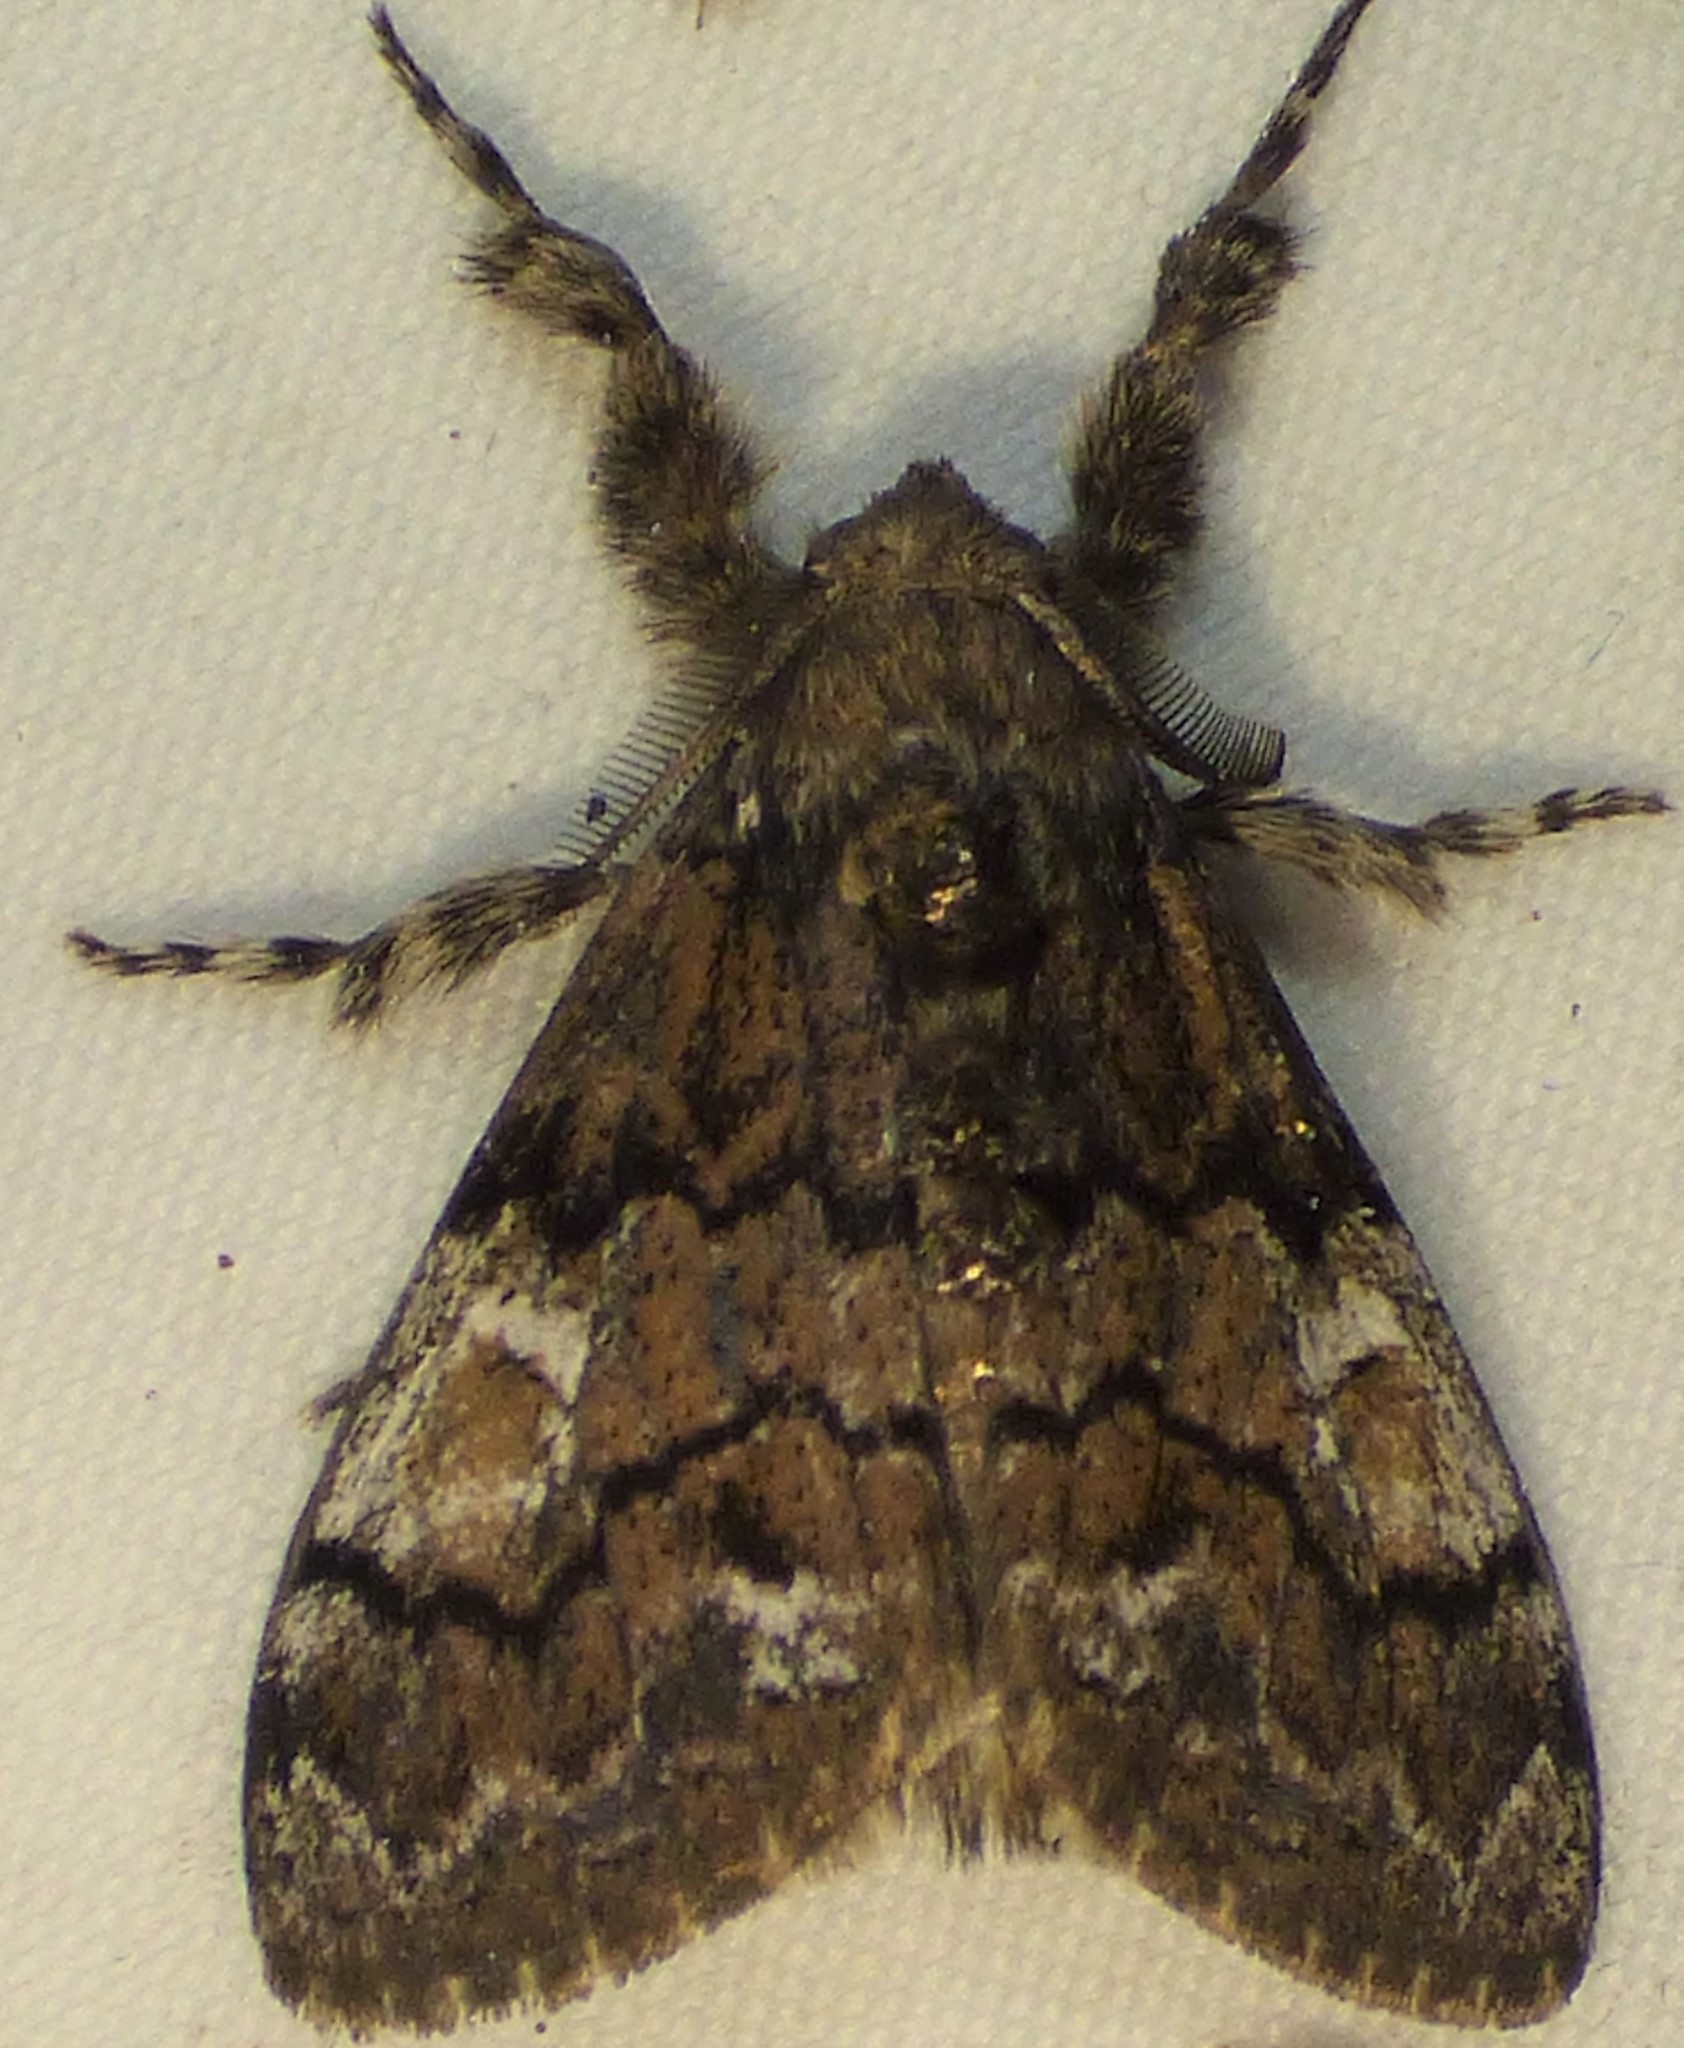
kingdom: Animalia
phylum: Arthropoda
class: Insecta
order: Lepidoptera
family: Erebidae
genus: Dasychira
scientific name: Dasychira manto
